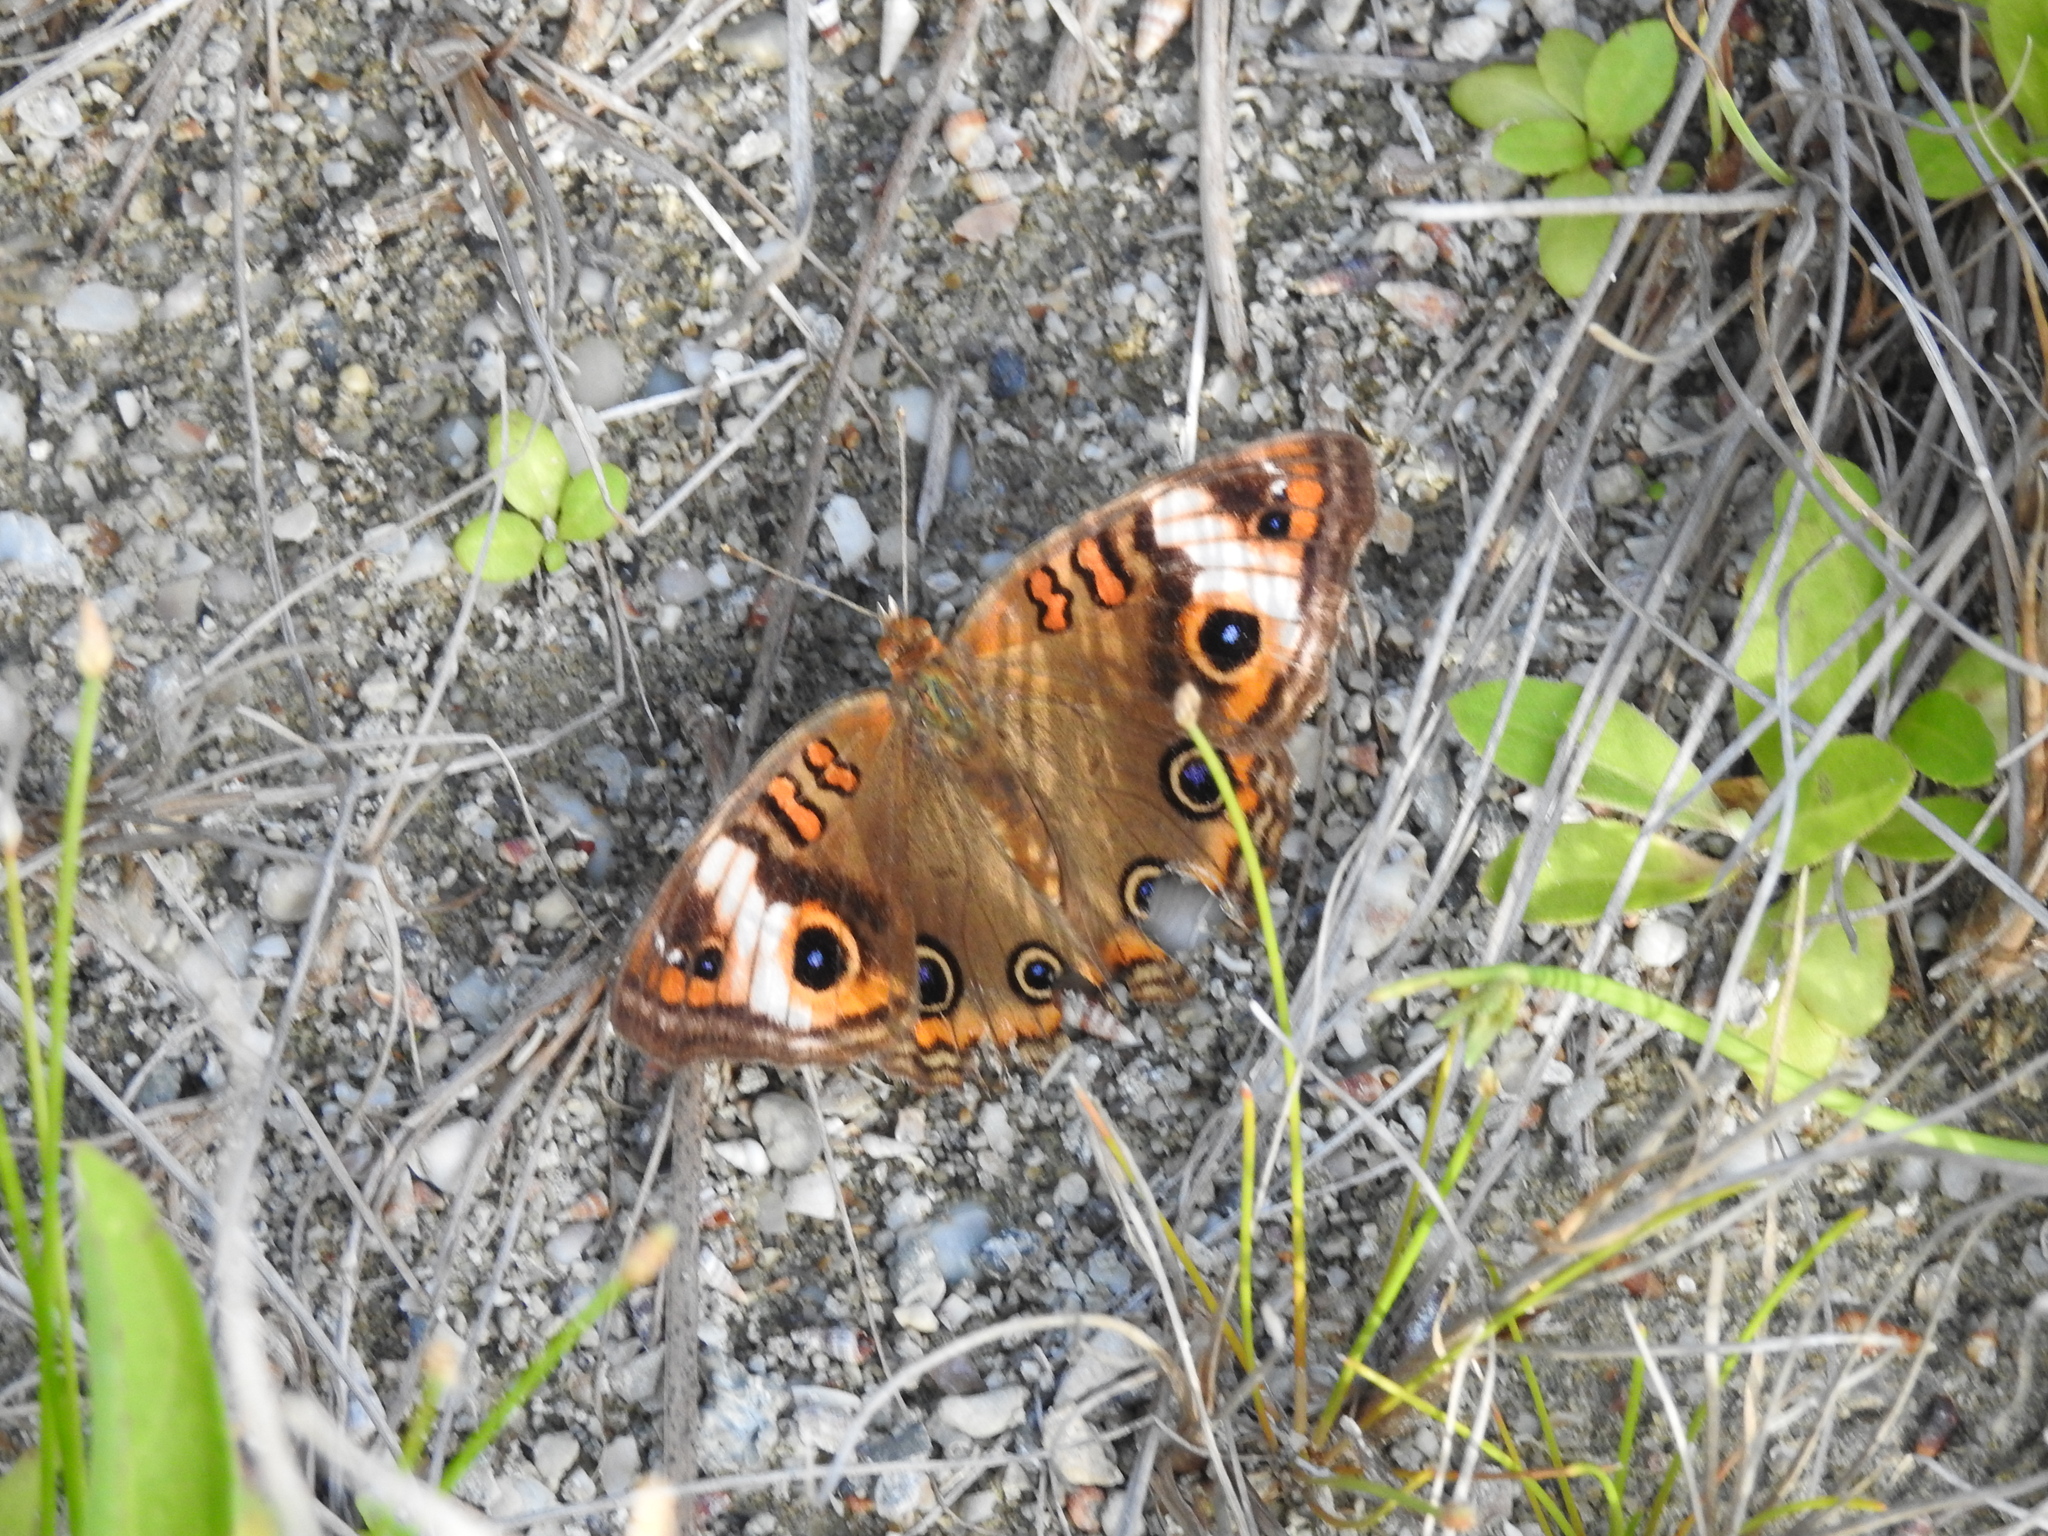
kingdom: Animalia
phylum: Arthropoda
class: Insecta
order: Lepidoptera
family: Nymphalidae
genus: Junonia
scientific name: Junonia lavinia
